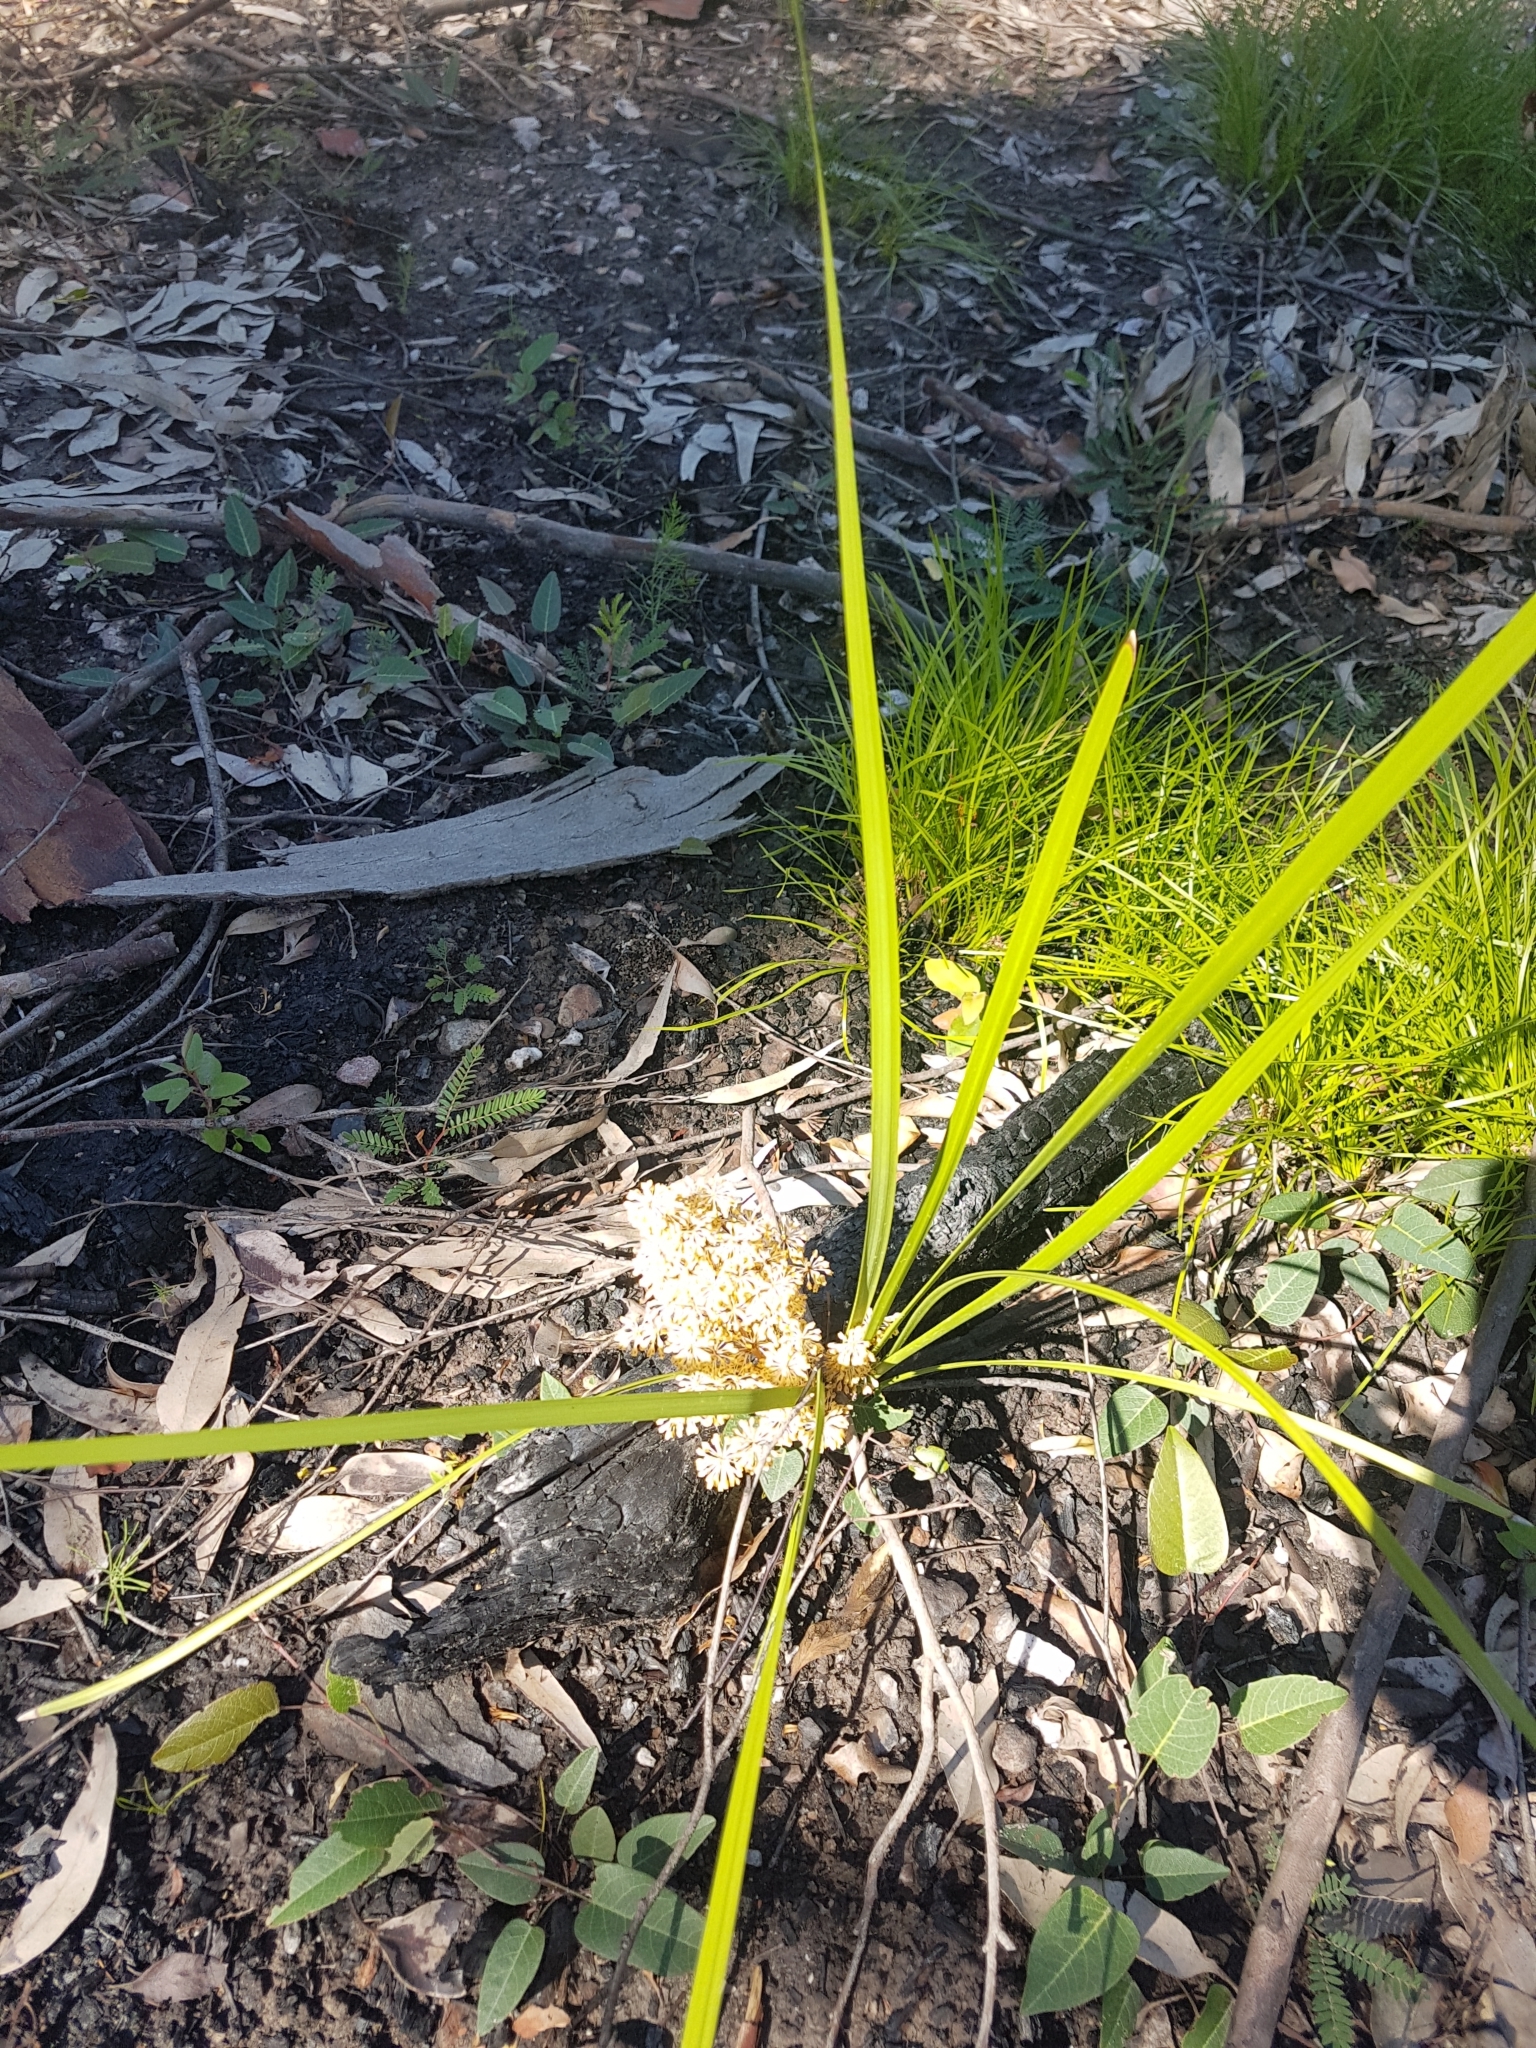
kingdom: Plantae
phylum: Tracheophyta
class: Liliopsida
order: Asparagales
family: Asparagaceae
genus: Lomandra
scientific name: Lomandra multiflora
